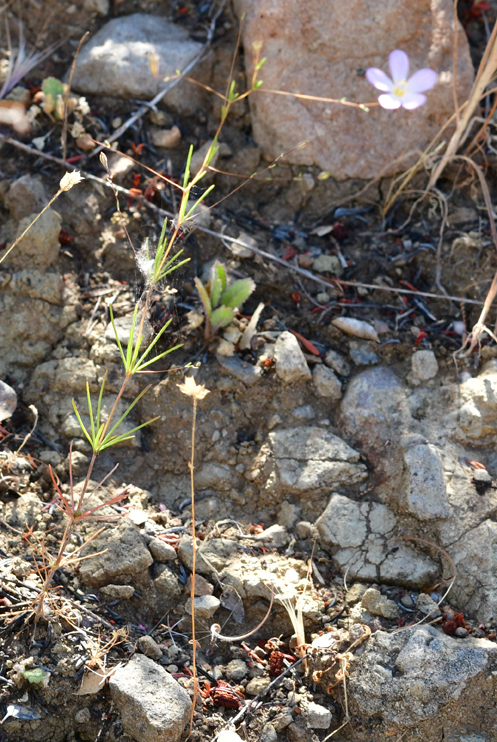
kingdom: Plantae
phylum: Tracheophyta
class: Magnoliopsida
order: Ericales
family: Polemoniaceae
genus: Leptosiphon
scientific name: Leptosiphon liniflorus
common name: Narrowflower flaxflower
